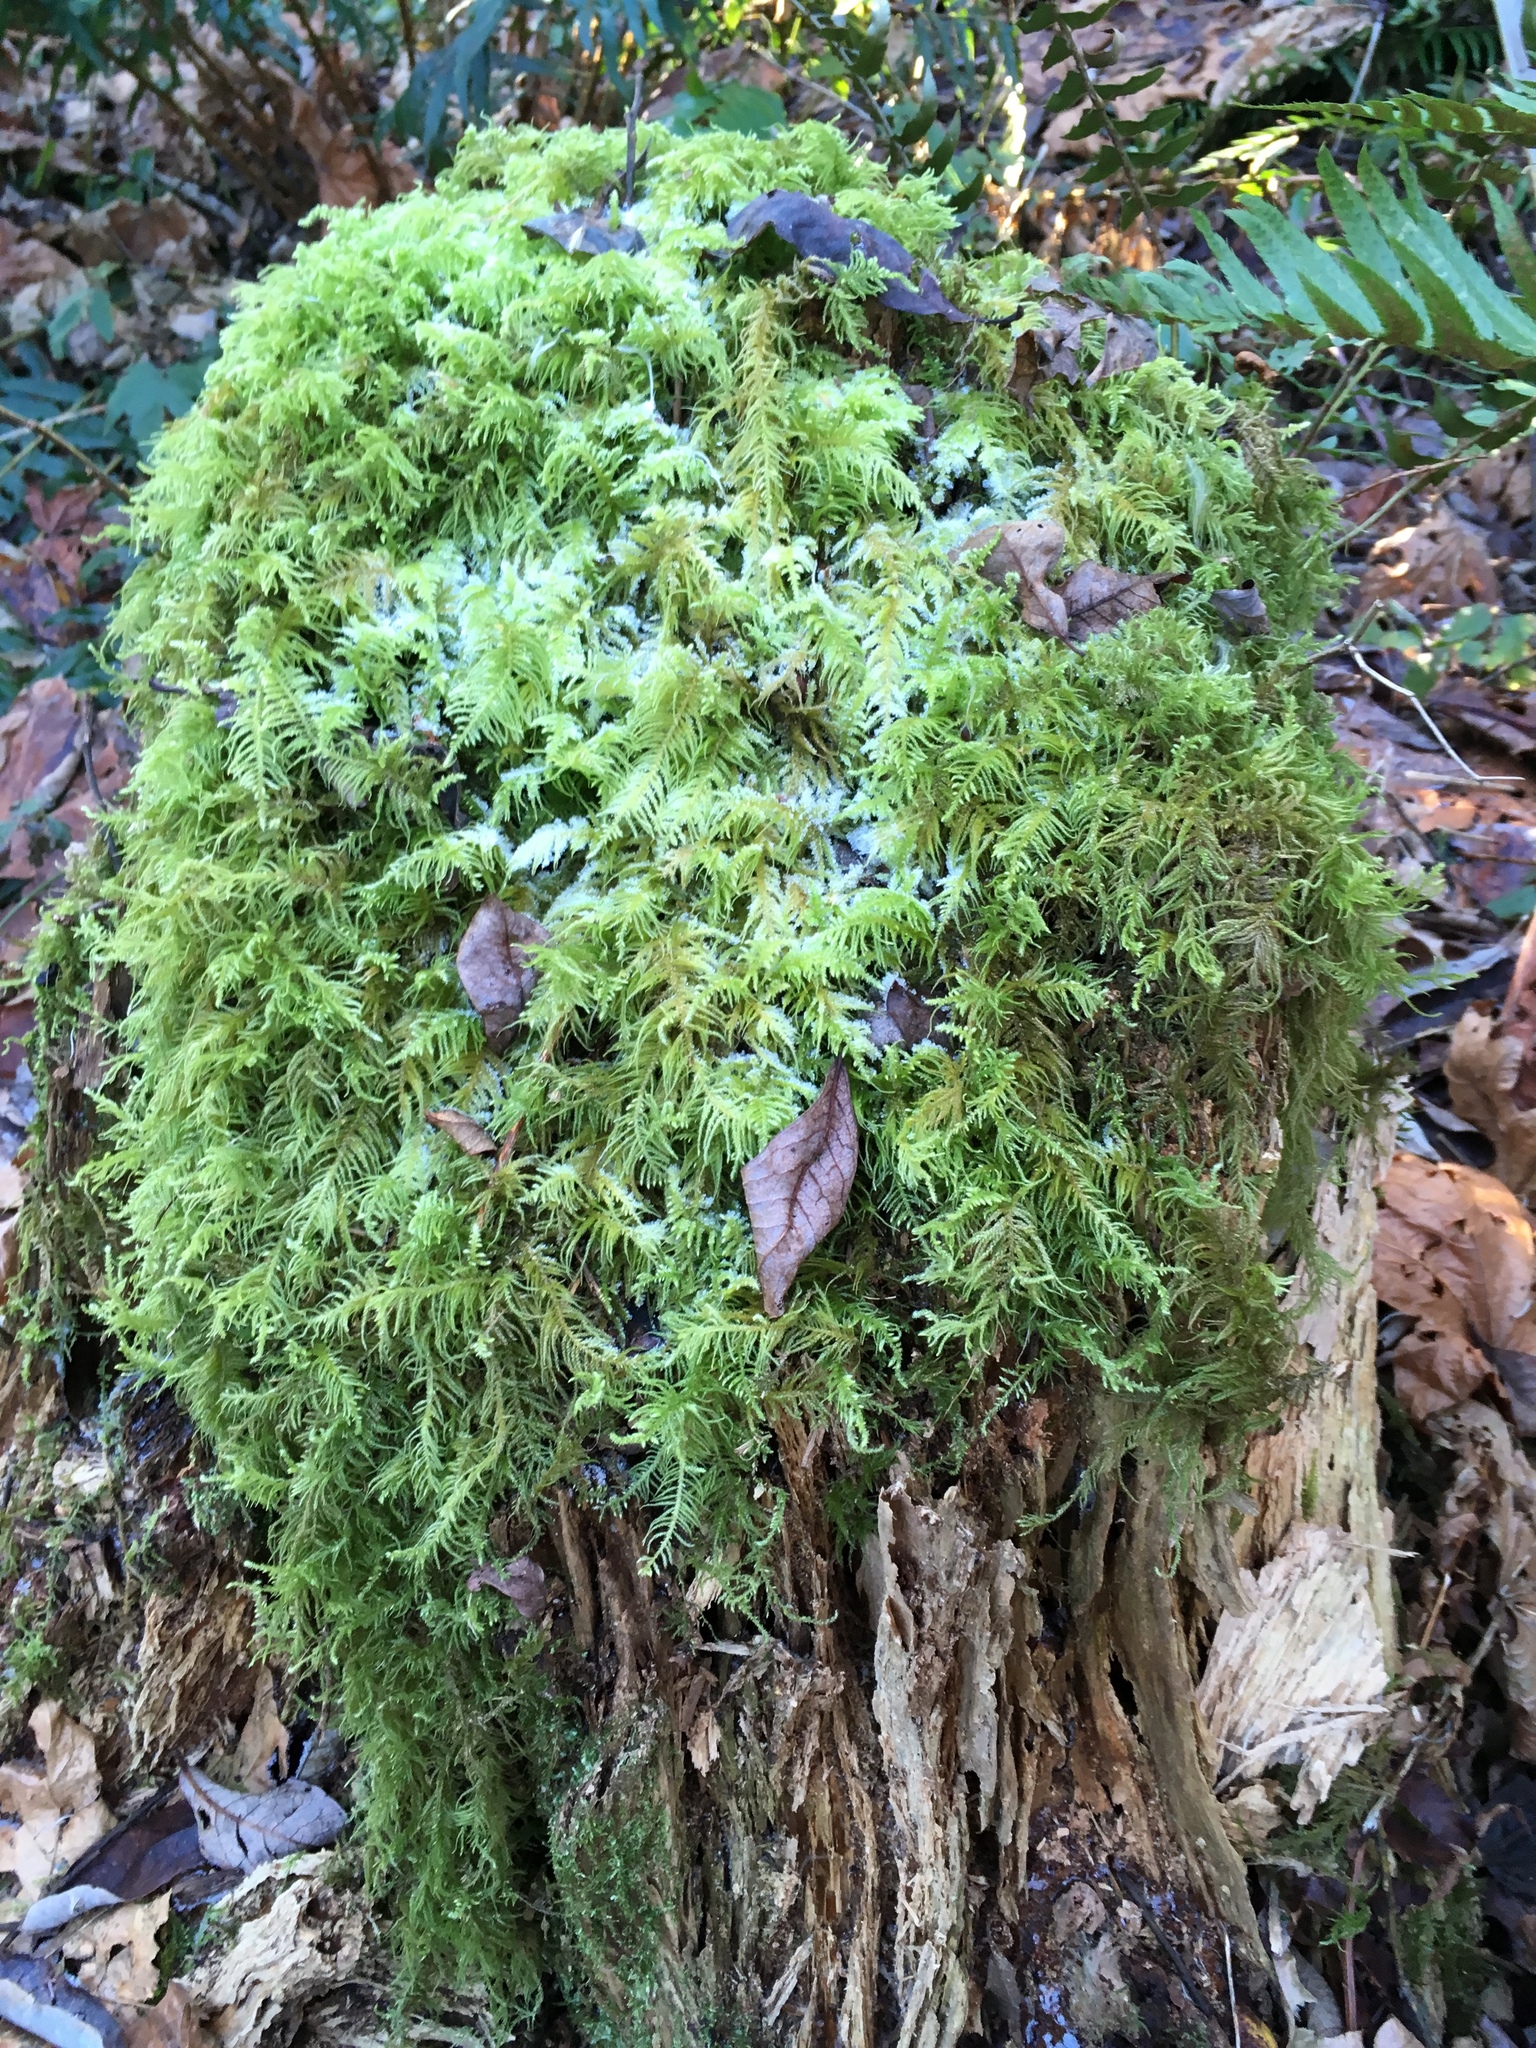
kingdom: Plantae
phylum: Bryophyta
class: Bryopsida
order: Hypnales
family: Brachytheciaceae
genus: Kindbergia
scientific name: Kindbergia oregana
